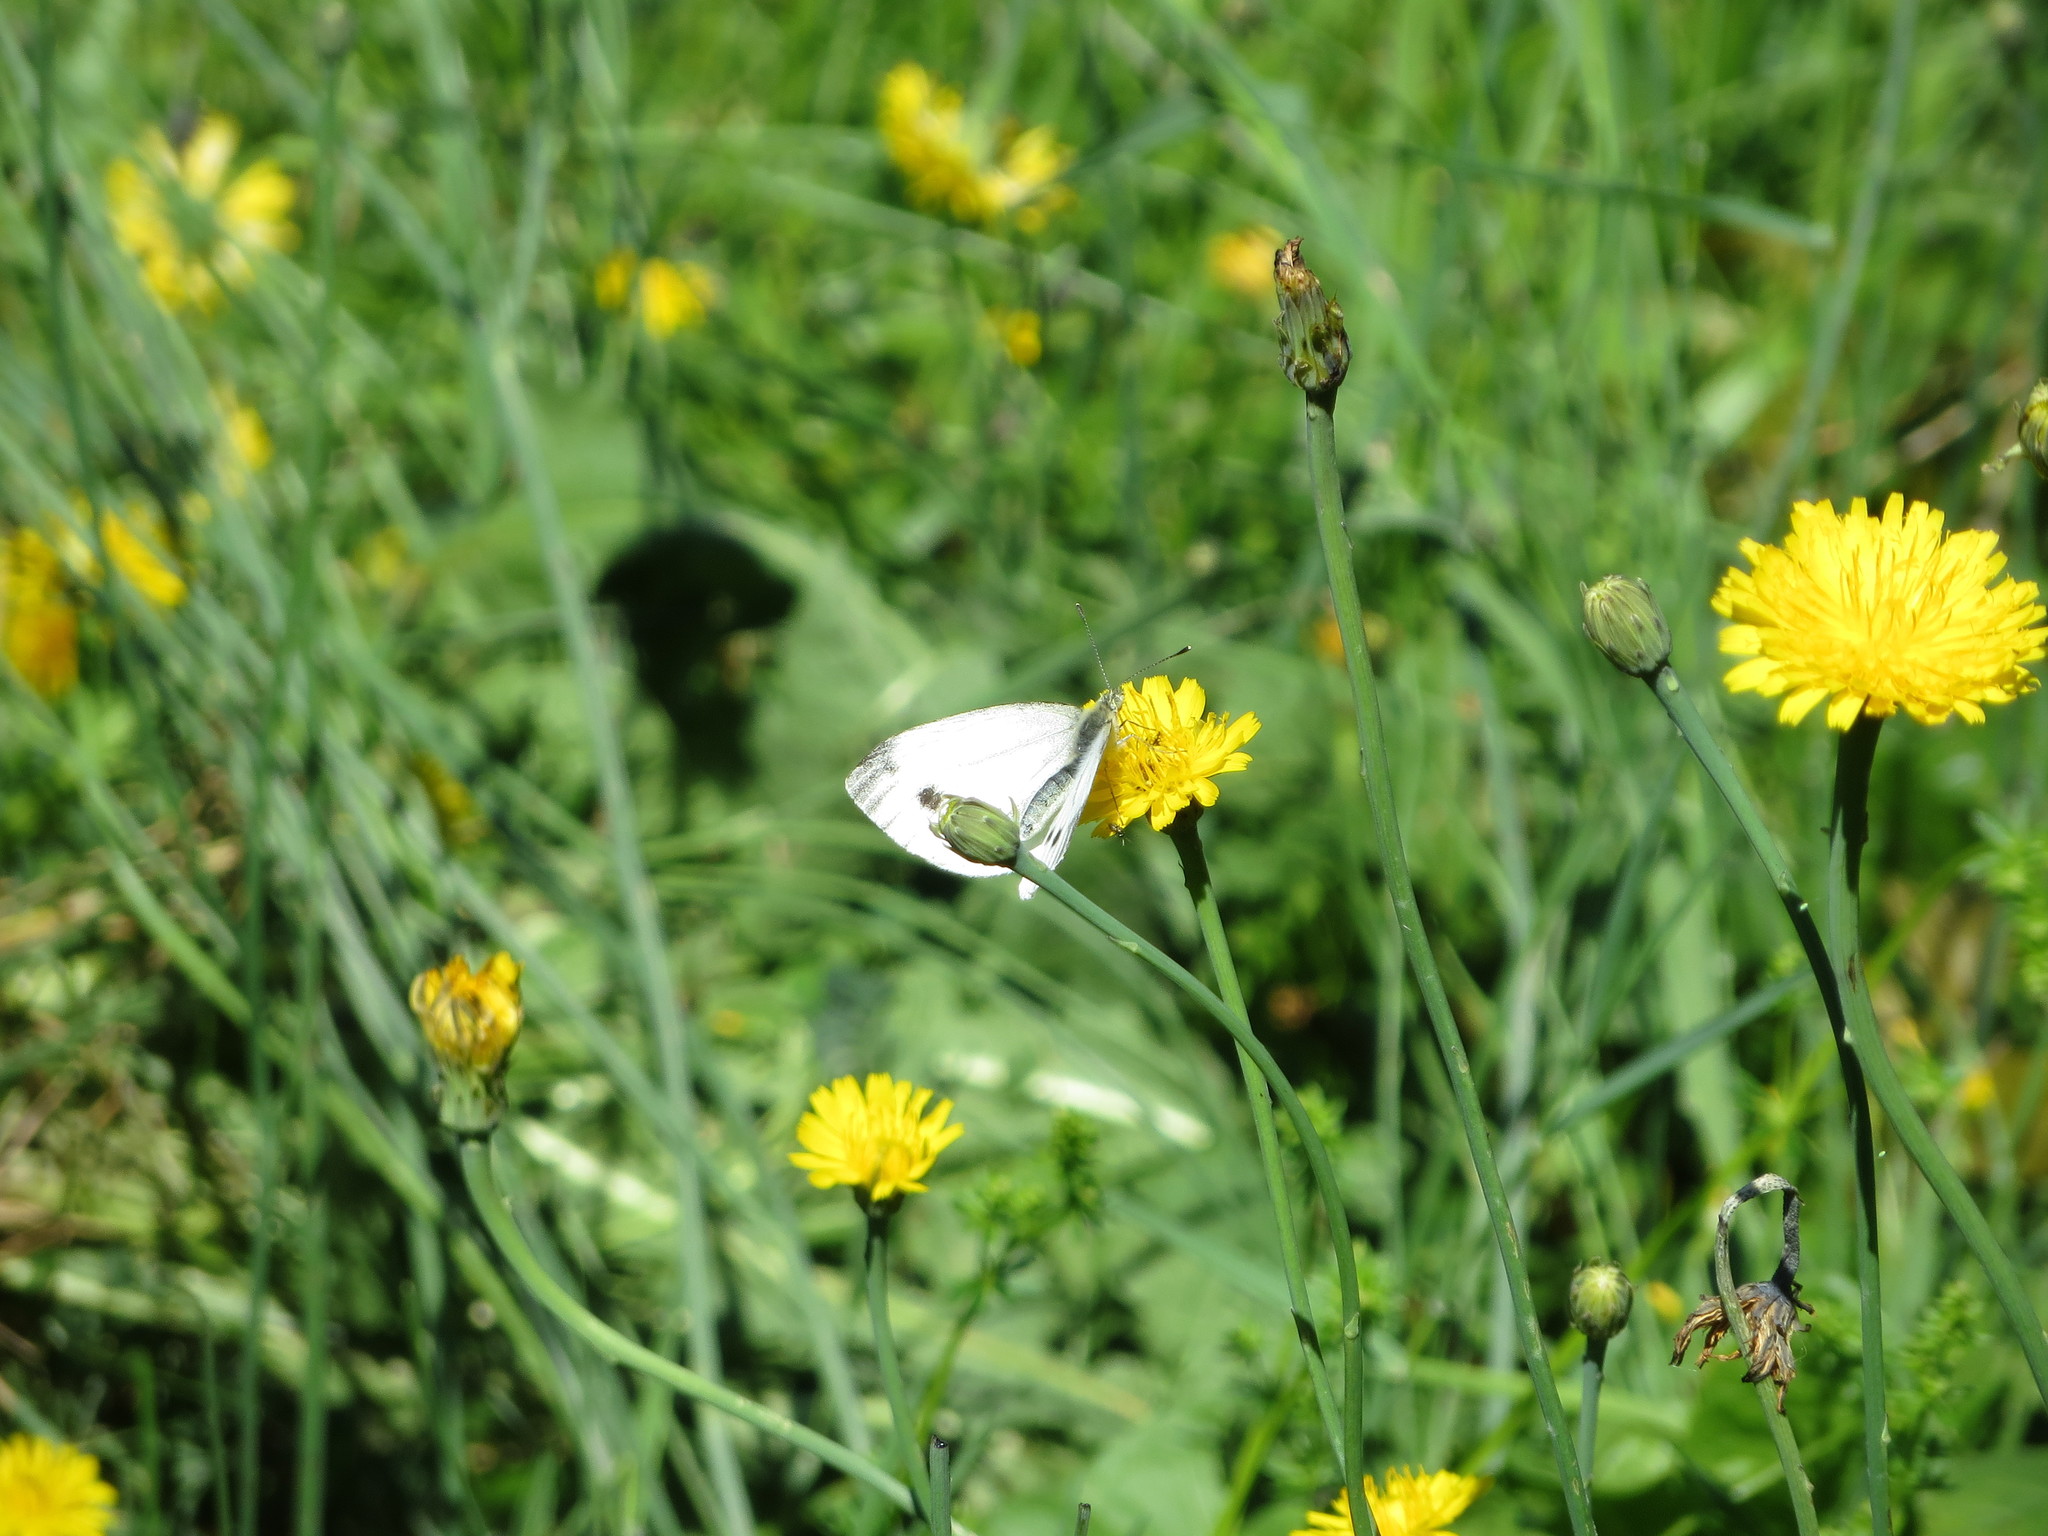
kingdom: Animalia
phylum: Arthropoda
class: Insecta
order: Lepidoptera
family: Pieridae
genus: Pieris
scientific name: Pieris napi
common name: Green-veined white
